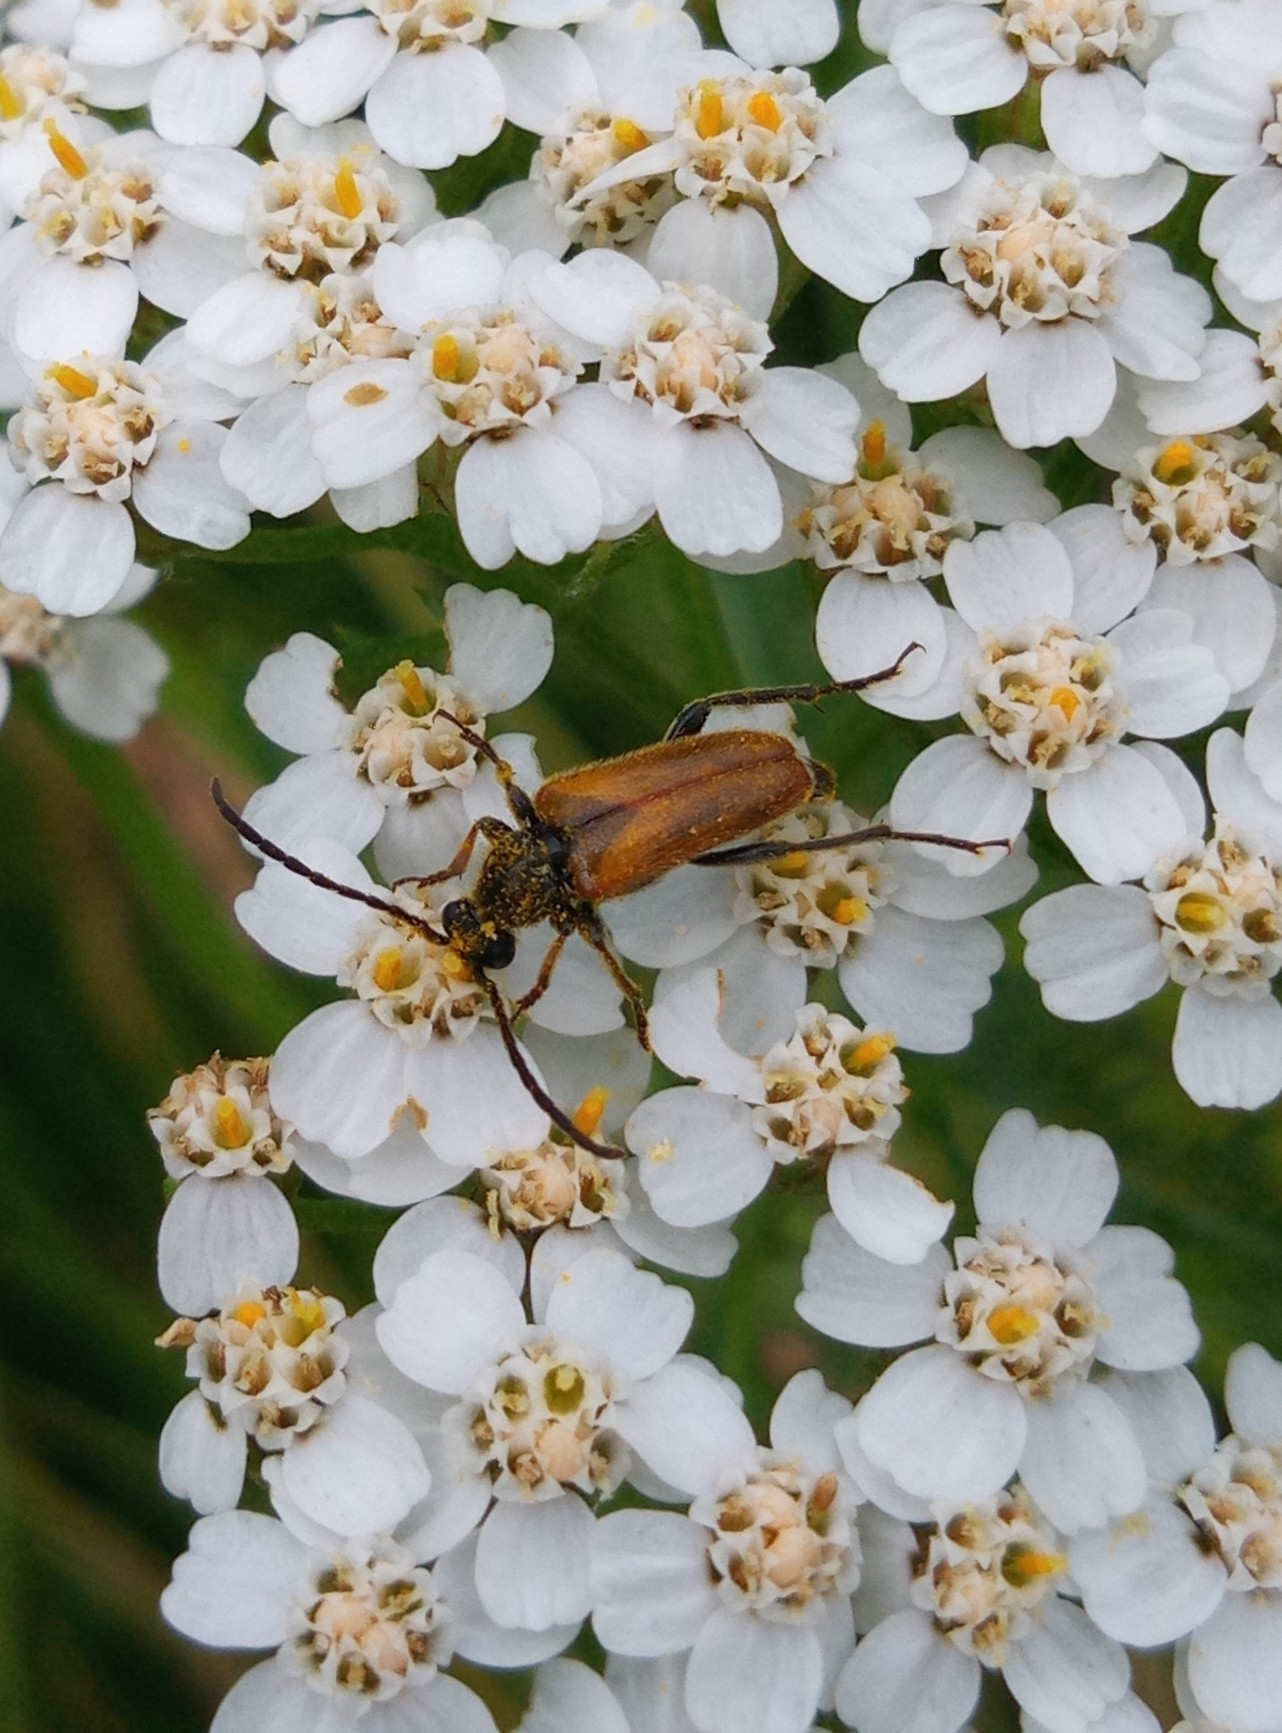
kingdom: Animalia
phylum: Arthropoda
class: Insecta
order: Coleoptera
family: Cerambycidae
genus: Pseudovadonia
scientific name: Pseudovadonia livida
